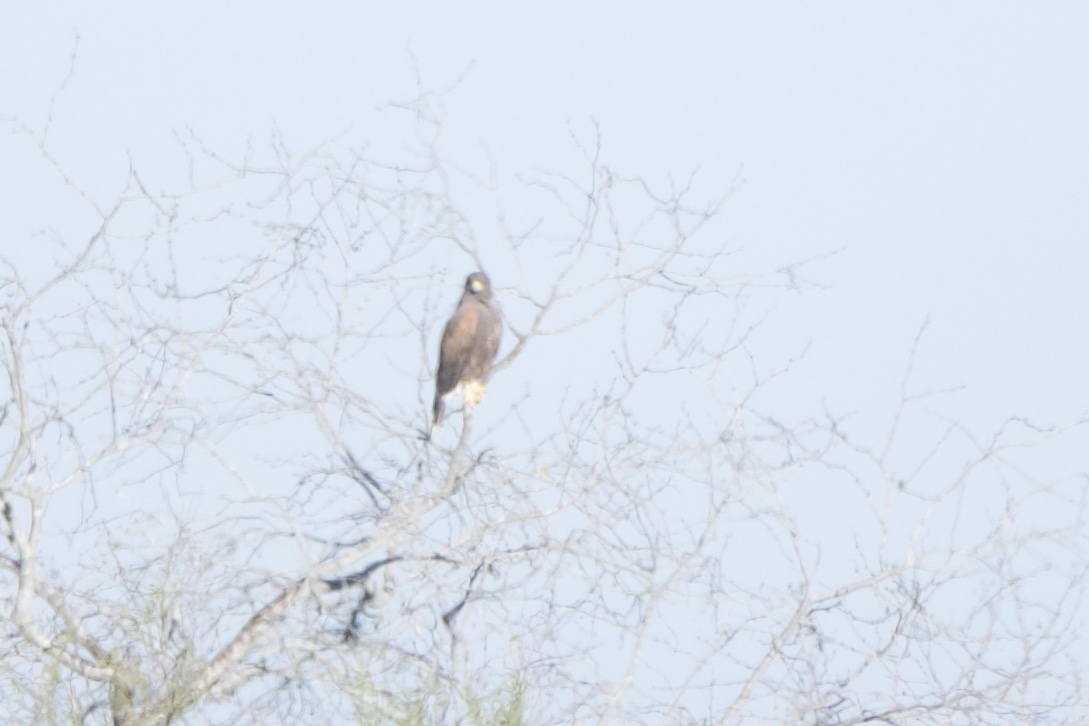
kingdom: Animalia
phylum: Chordata
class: Aves
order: Accipitriformes
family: Accipitridae
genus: Parabuteo
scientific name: Parabuteo unicinctus
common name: Harris's hawk
